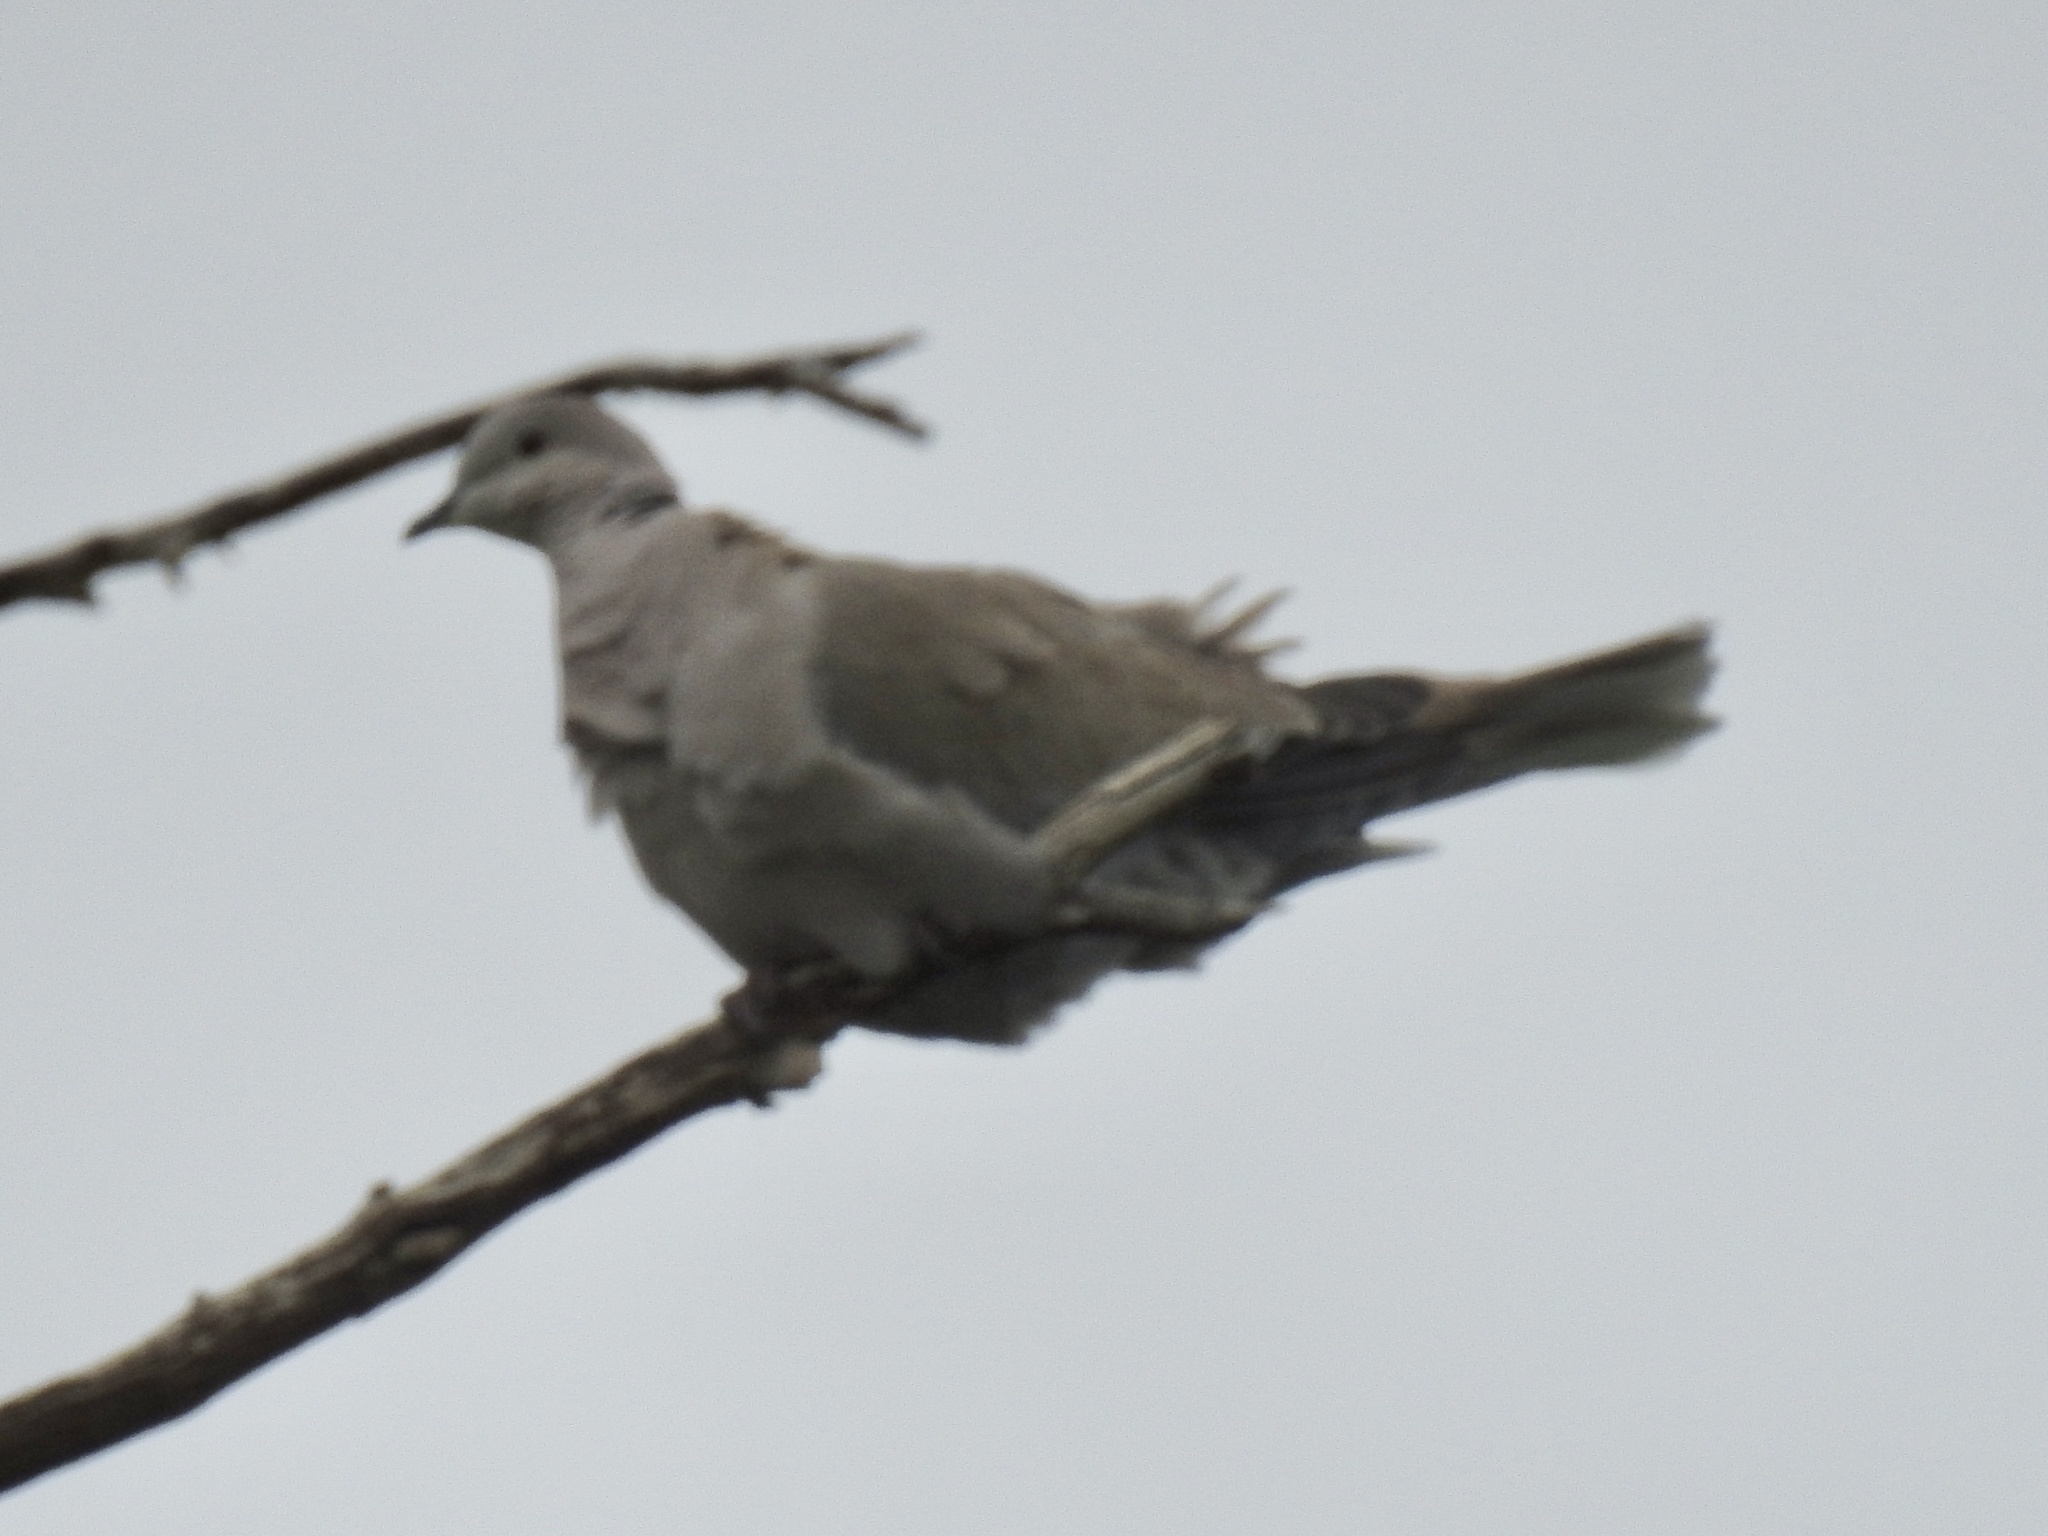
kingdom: Animalia
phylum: Chordata
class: Aves
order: Columbiformes
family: Columbidae
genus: Streptopelia
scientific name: Streptopelia decaocto
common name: Eurasian collared dove
